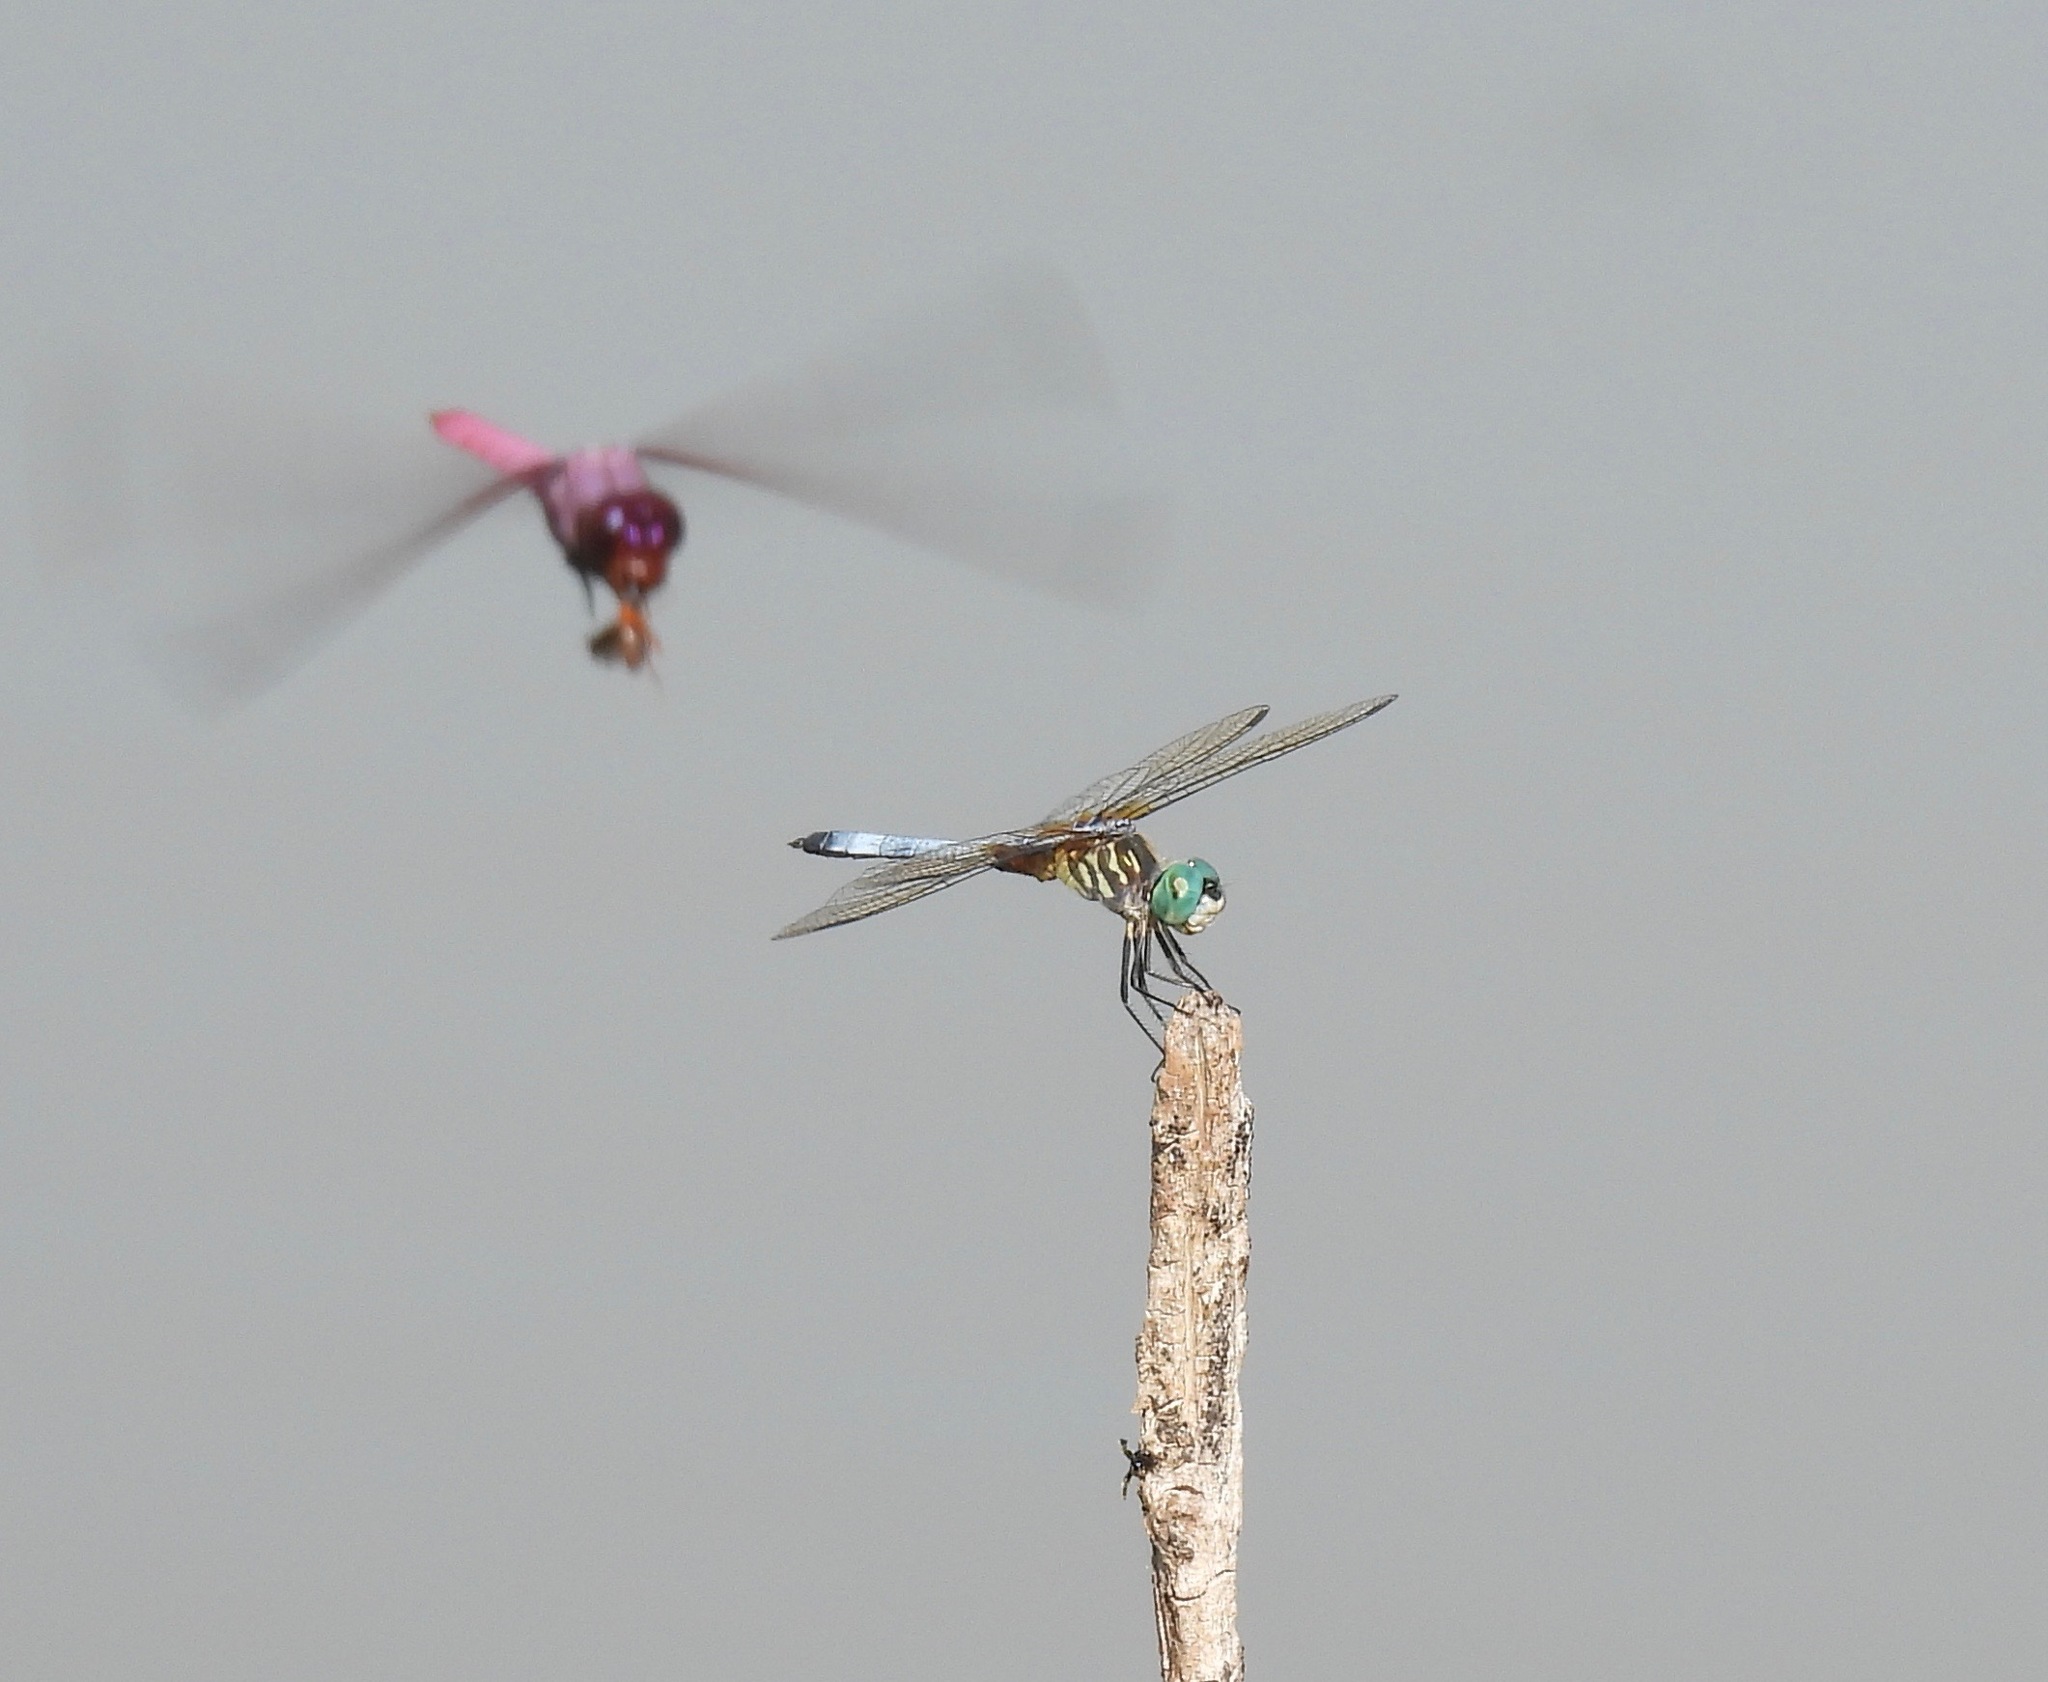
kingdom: Animalia
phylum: Arthropoda
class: Insecta
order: Odonata
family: Libellulidae
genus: Pachydiplax
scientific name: Pachydiplax longipennis
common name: Blue dasher
